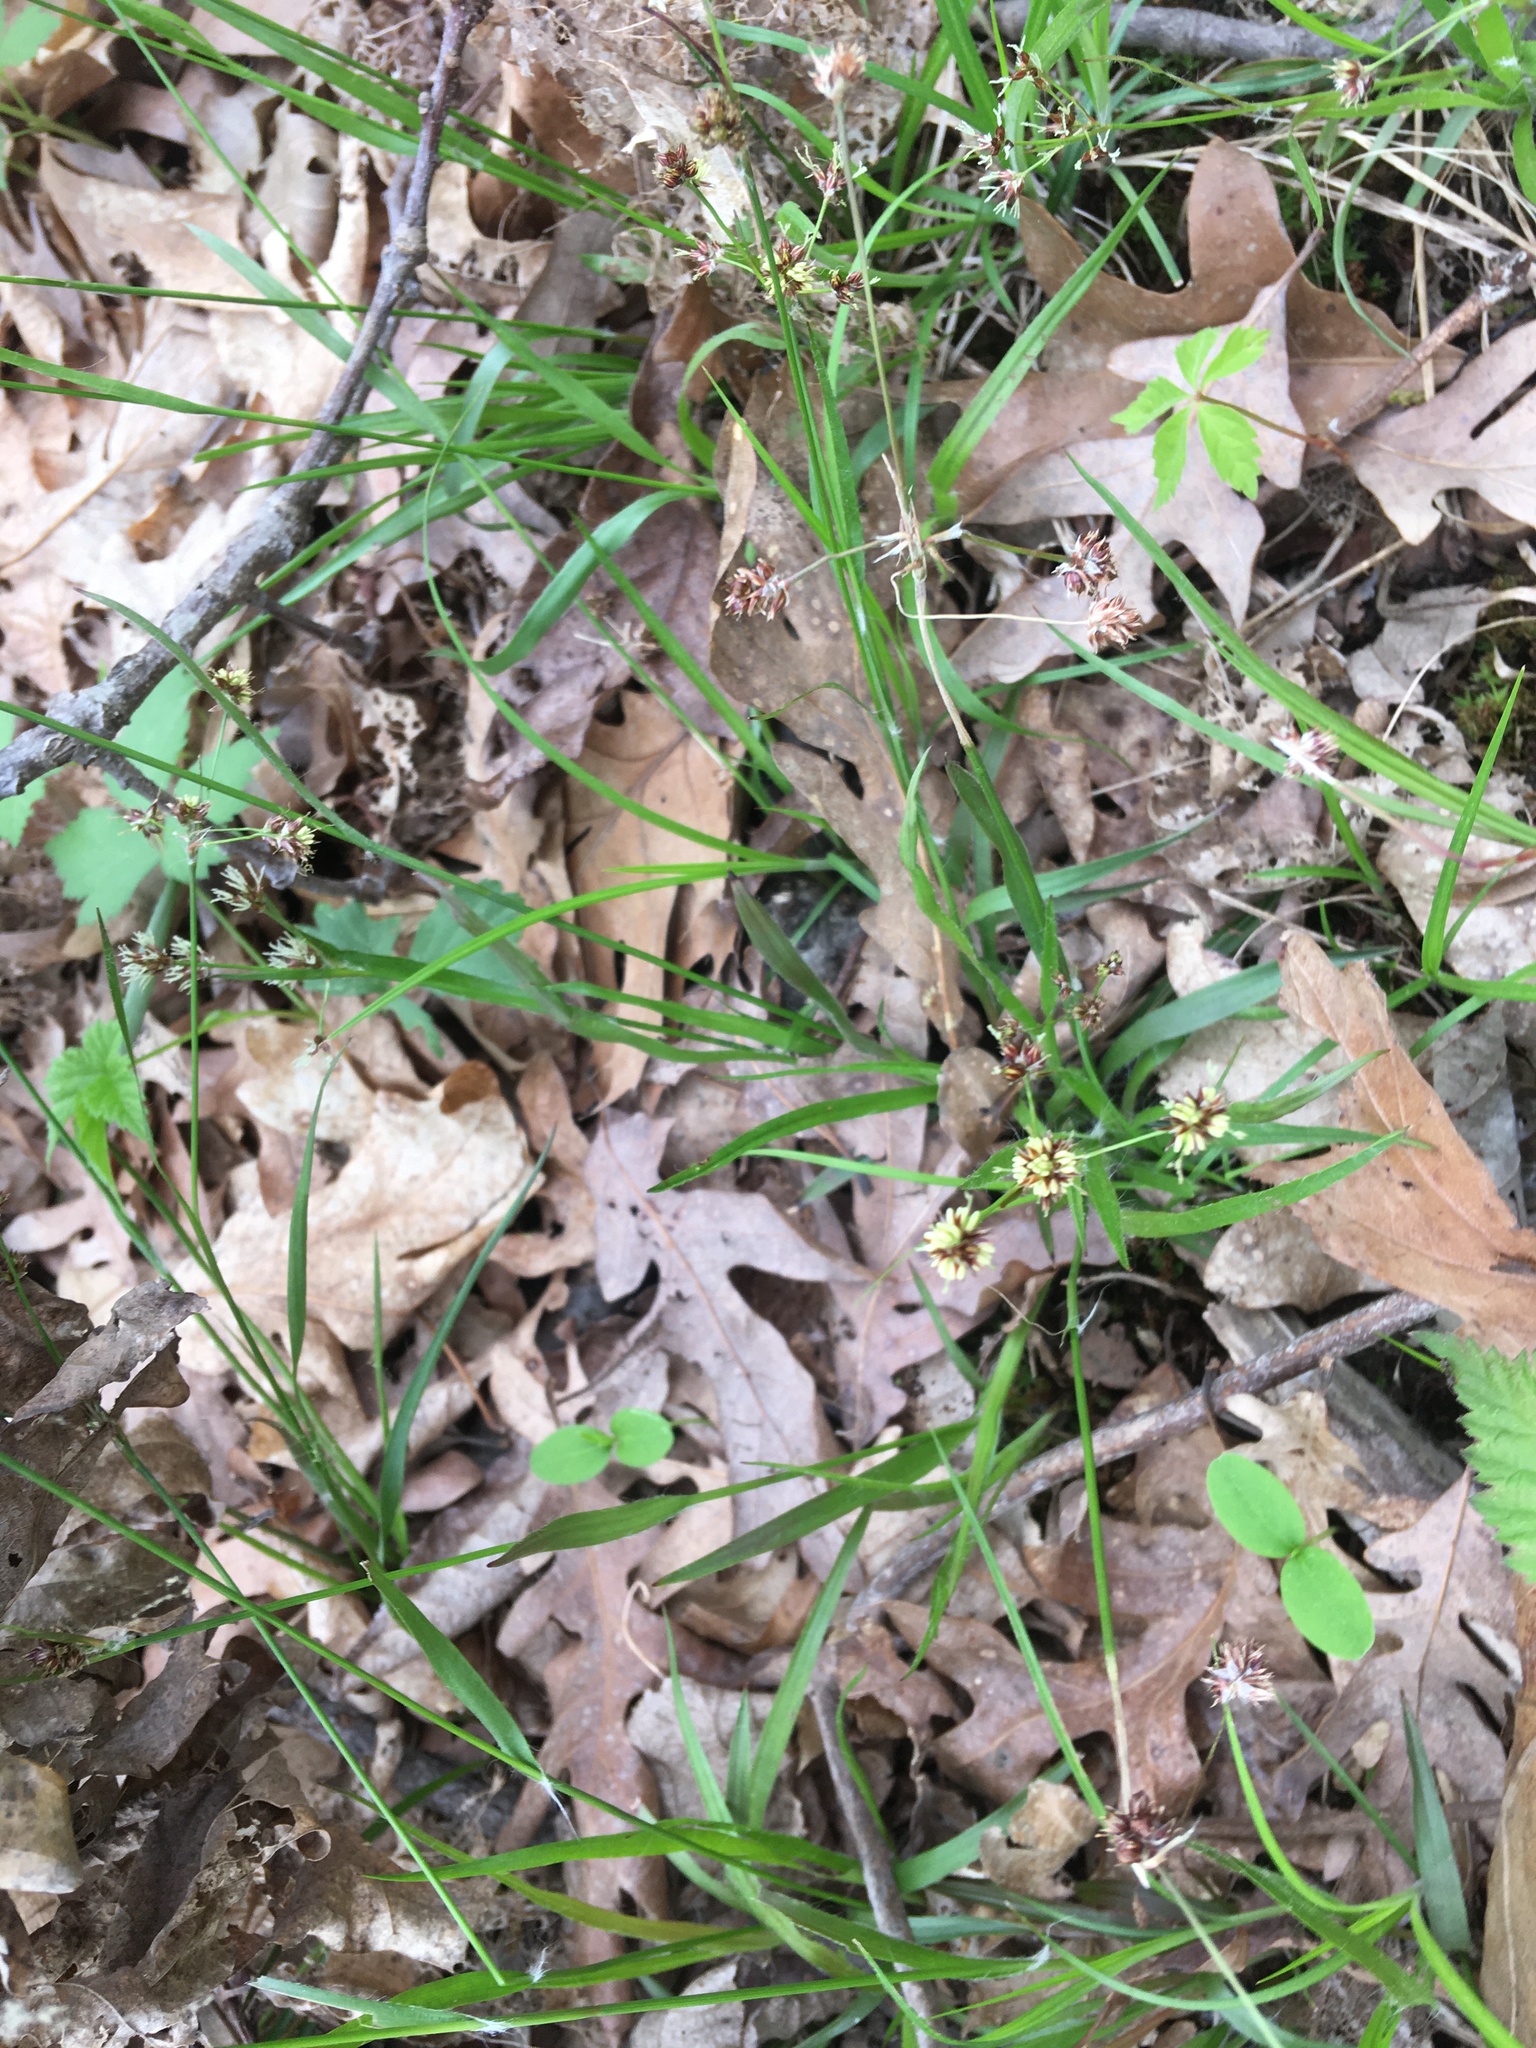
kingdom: Plantae
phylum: Tracheophyta
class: Liliopsida
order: Poales
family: Juncaceae
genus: Luzula
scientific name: Luzula multiflora
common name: Heath wood-rush
